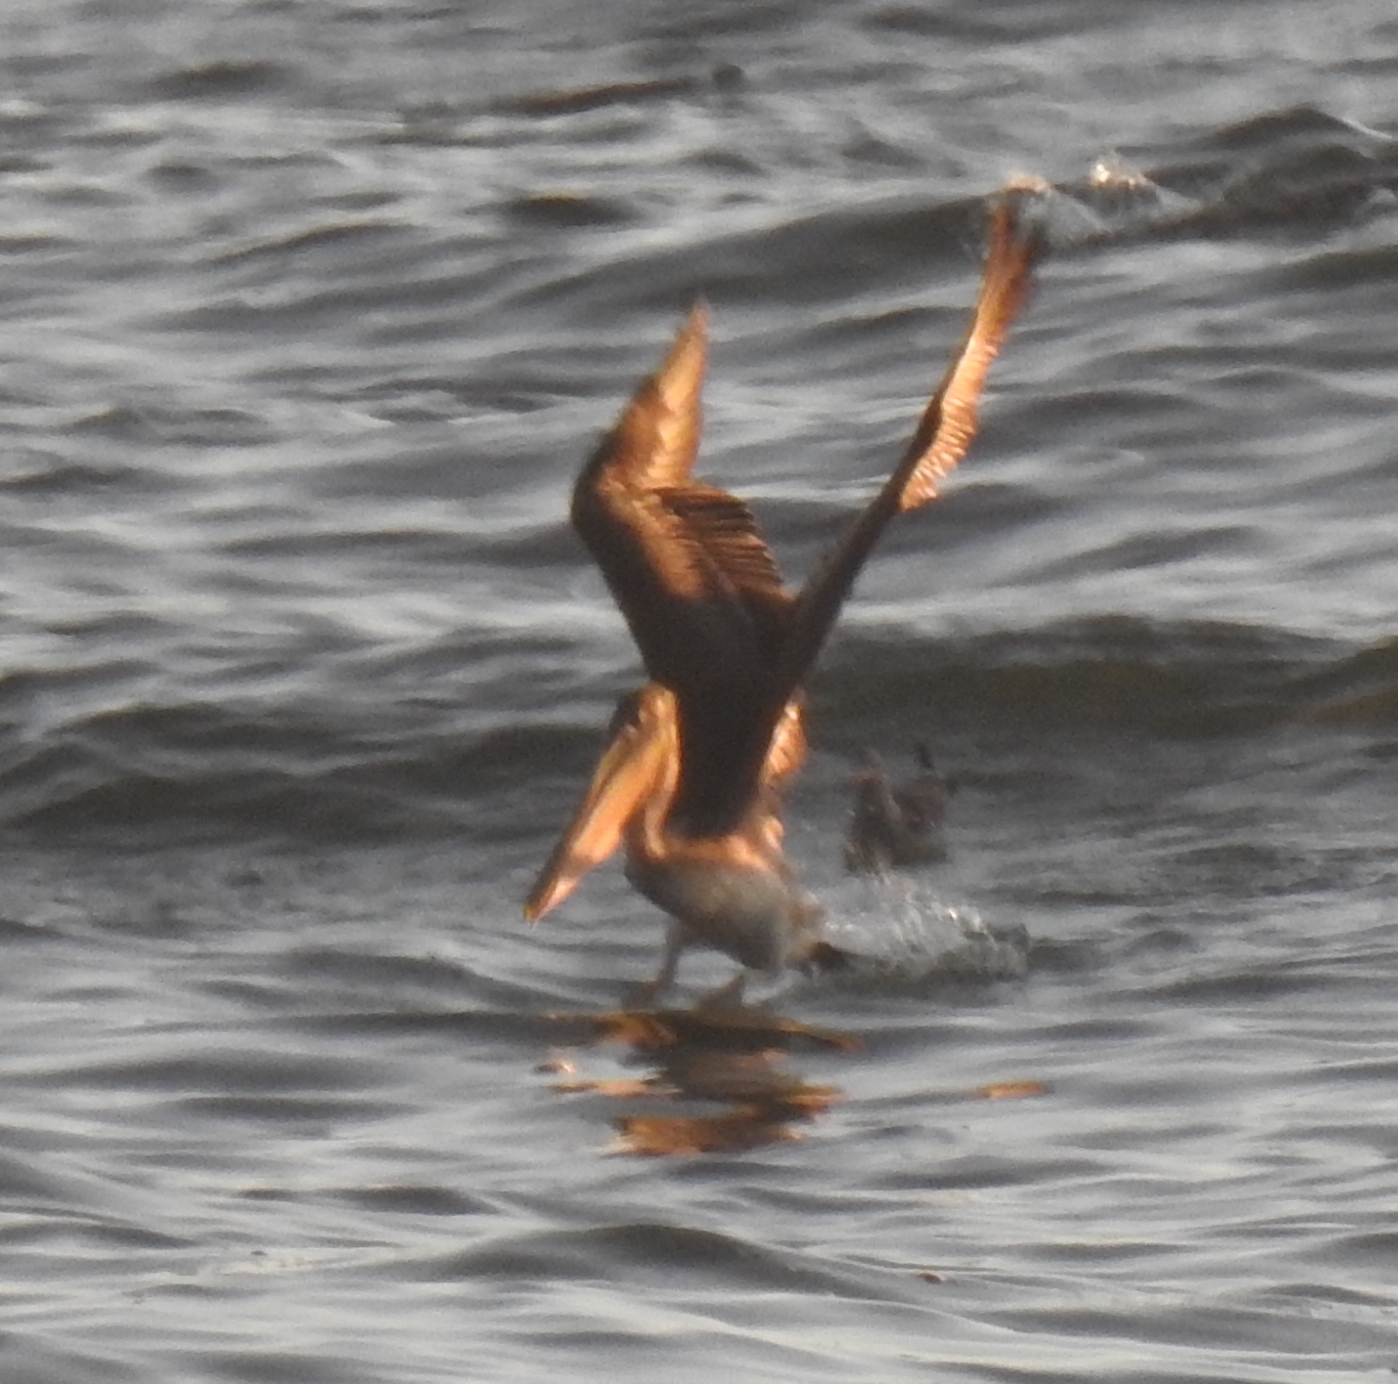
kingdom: Animalia
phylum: Chordata
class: Aves
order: Pelecaniformes
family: Pelecanidae
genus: Pelecanus
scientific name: Pelecanus occidentalis
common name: Brown pelican
